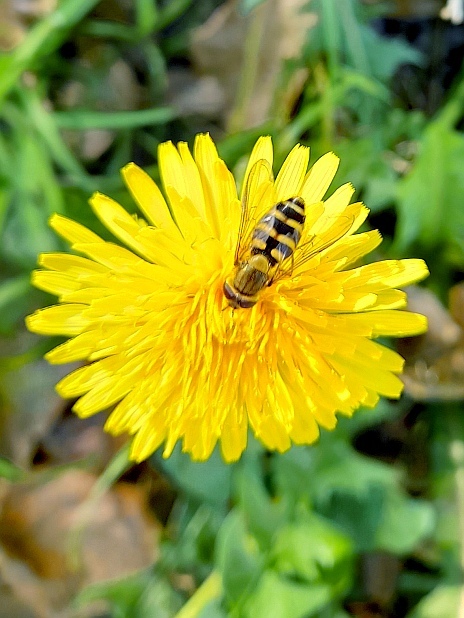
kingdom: Plantae
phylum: Tracheophyta
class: Magnoliopsida
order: Asterales
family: Asteraceae
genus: Taraxacum
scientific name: Taraxacum officinale
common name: Common dandelion
